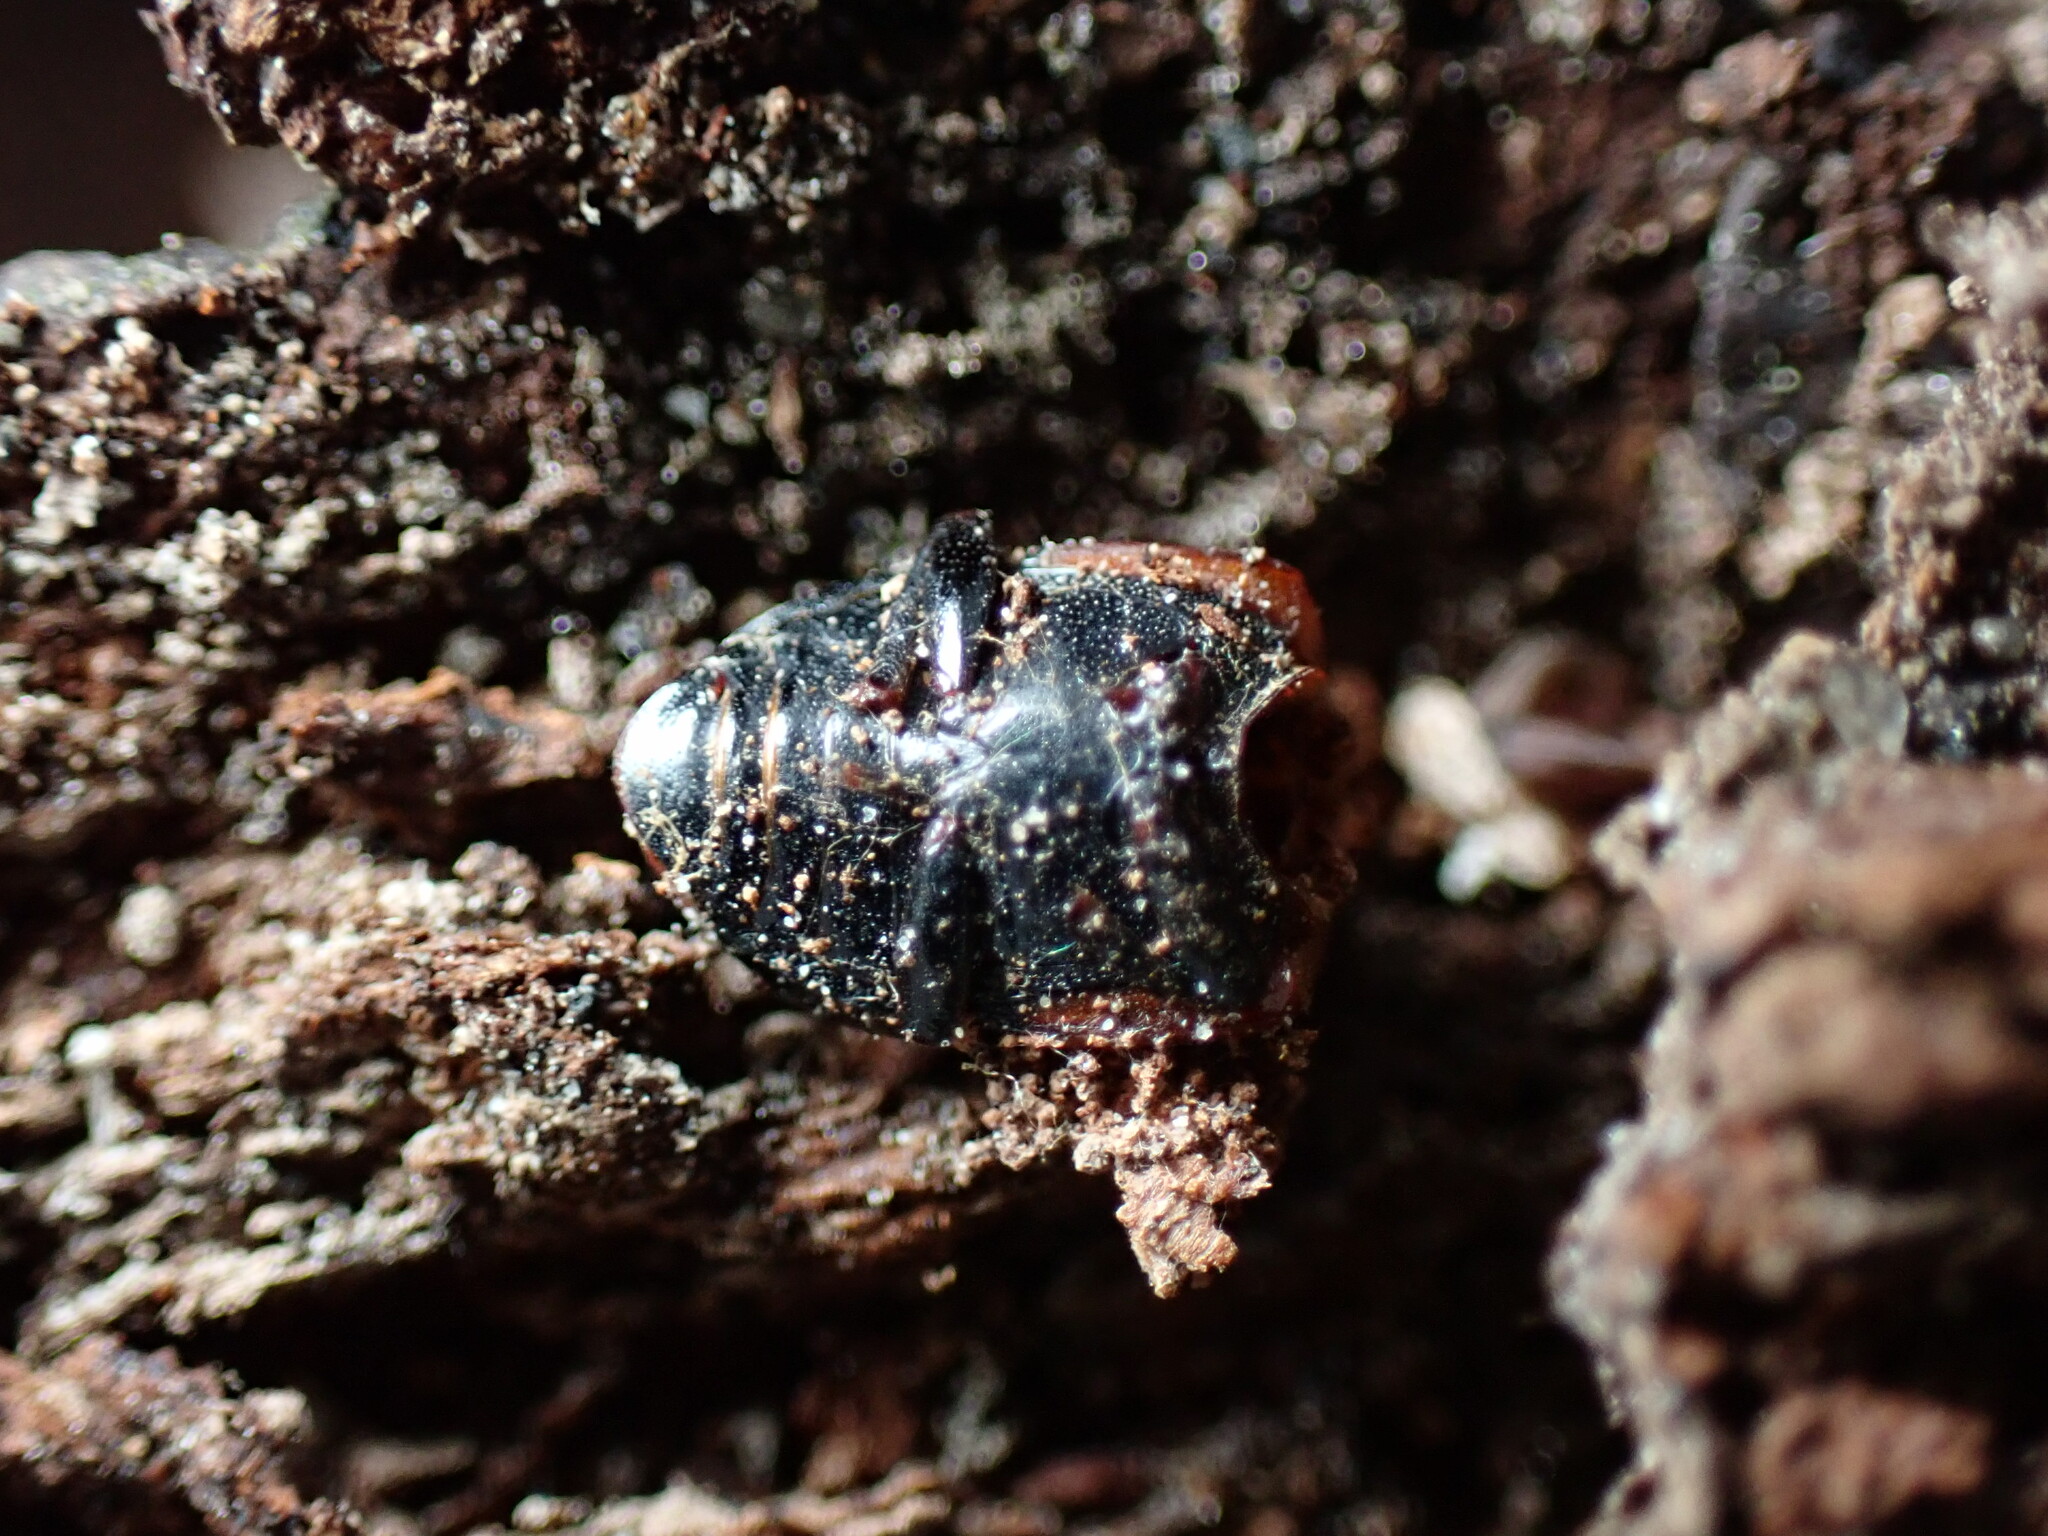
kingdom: Animalia
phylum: Arthropoda
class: Insecta
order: Coleoptera
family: Tenebrionidae
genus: Diaperis
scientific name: Diaperis maculata
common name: Darkling beetle
